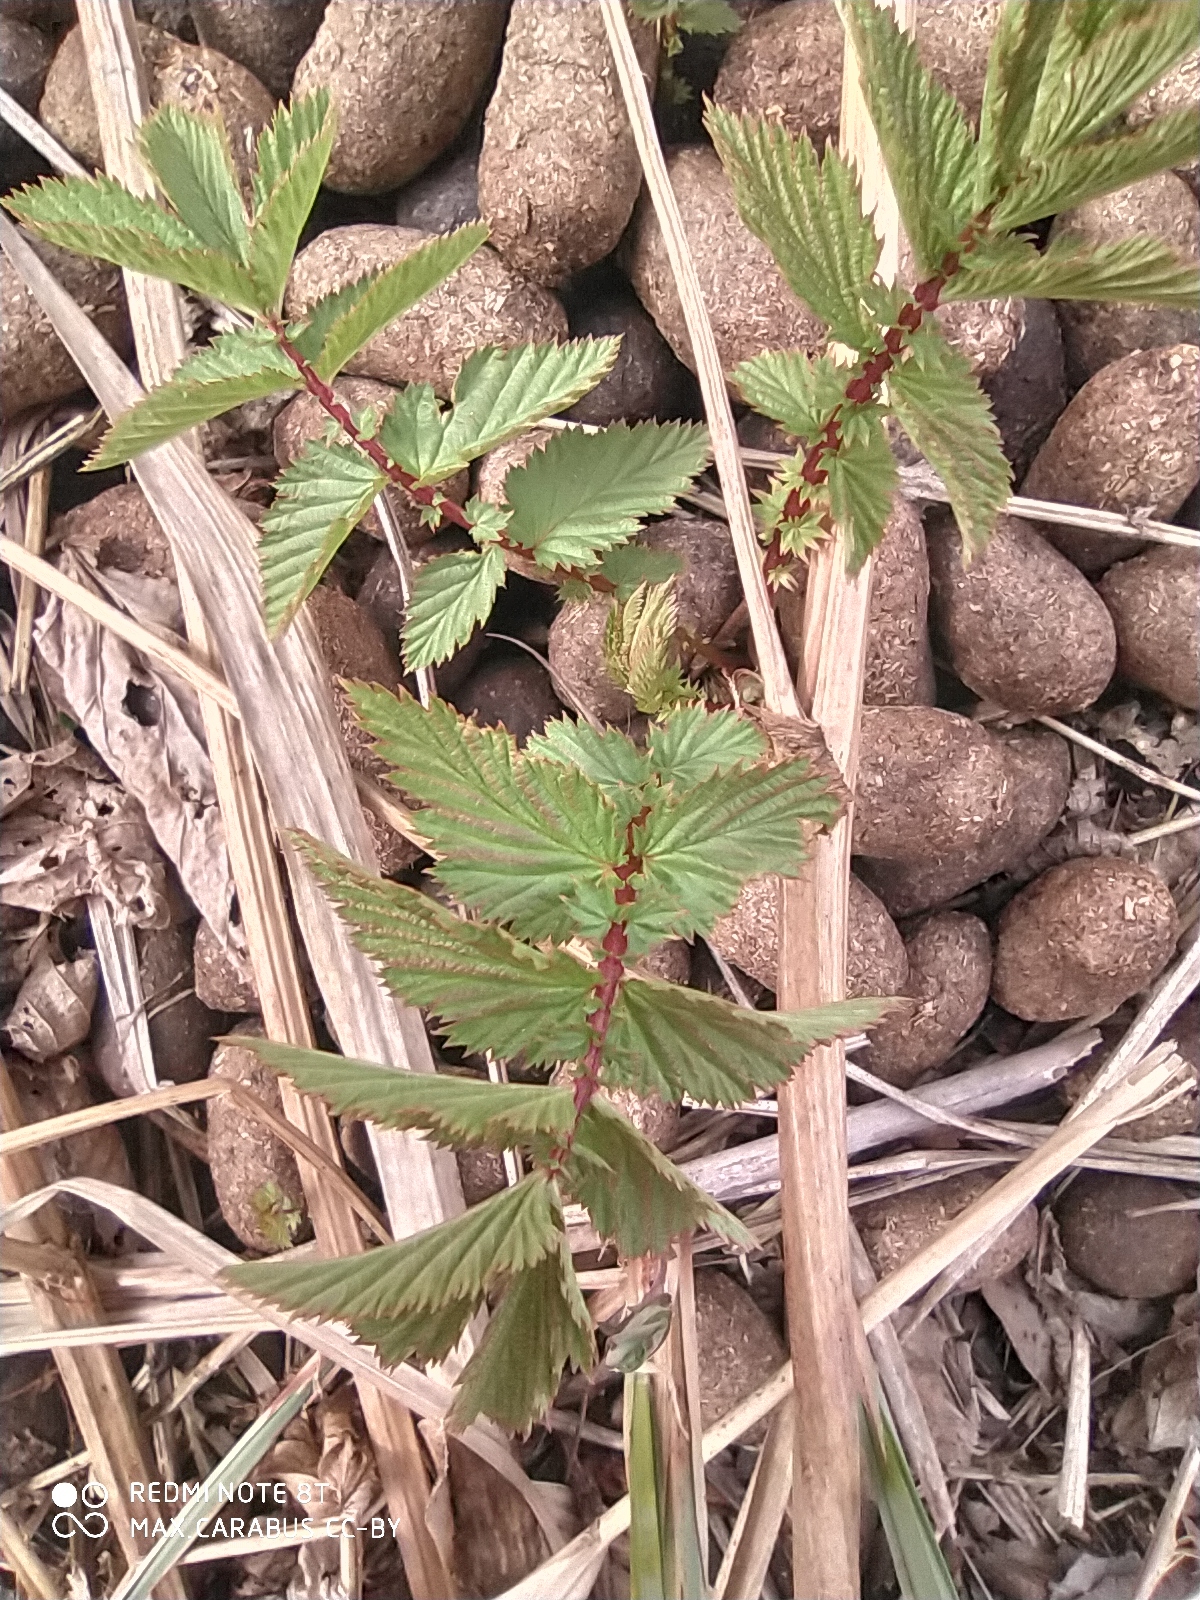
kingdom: Plantae
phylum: Tracheophyta
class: Magnoliopsida
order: Rosales
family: Rosaceae
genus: Filipendula
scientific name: Filipendula ulmaria
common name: Meadowsweet
